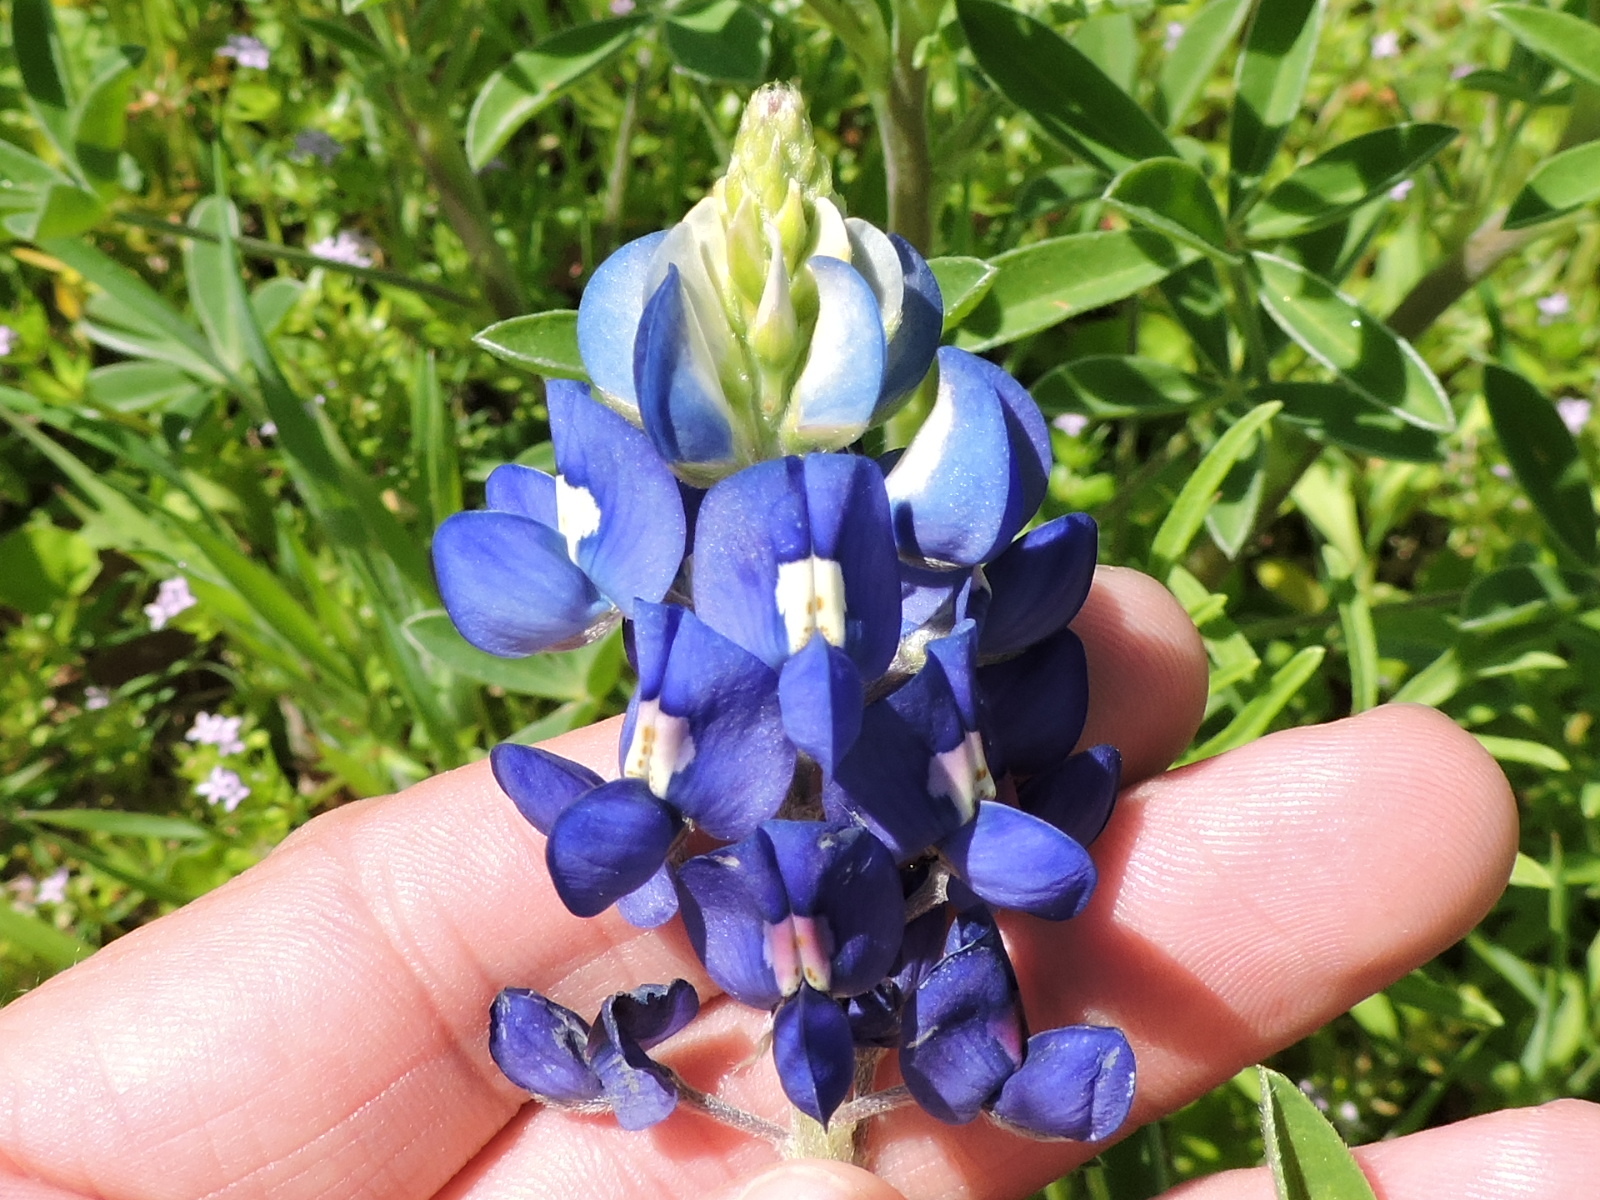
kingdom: Plantae
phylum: Tracheophyta
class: Magnoliopsida
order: Fabales
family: Fabaceae
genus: Lupinus
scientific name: Lupinus texensis
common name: Texas bluebonnet
